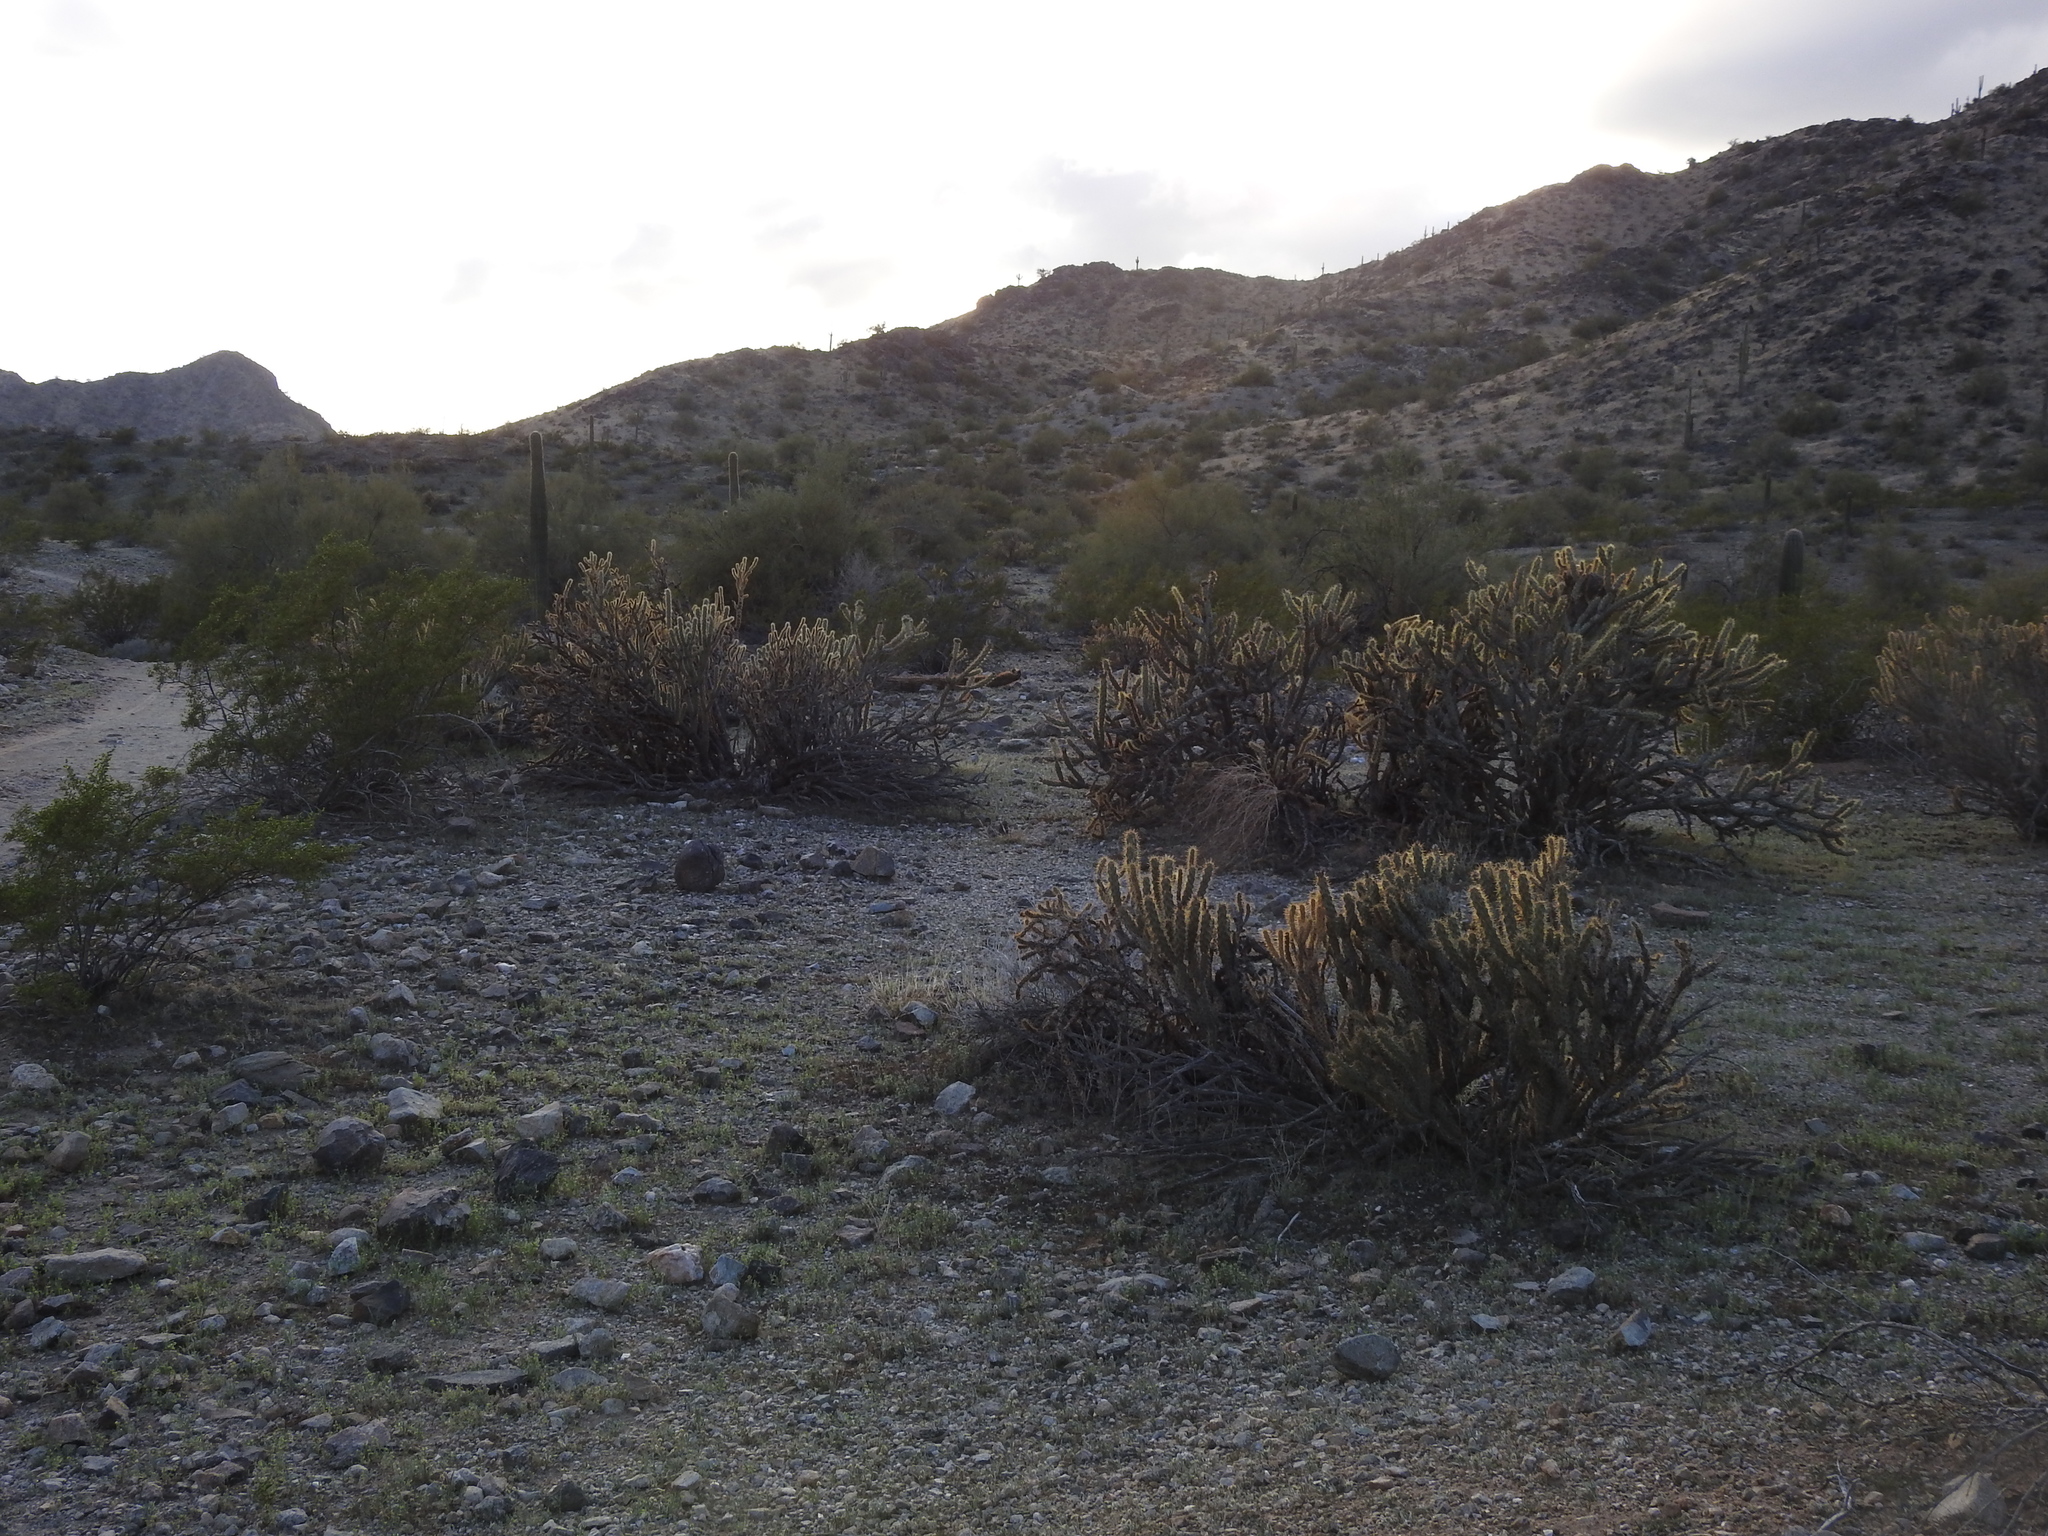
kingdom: Plantae
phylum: Tracheophyta
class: Magnoliopsida
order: Caryophyllales
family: Cactaceae
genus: Cylindropuntia
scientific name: Cylindropuntia acanthocarpa
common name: Buckhorn cholla
